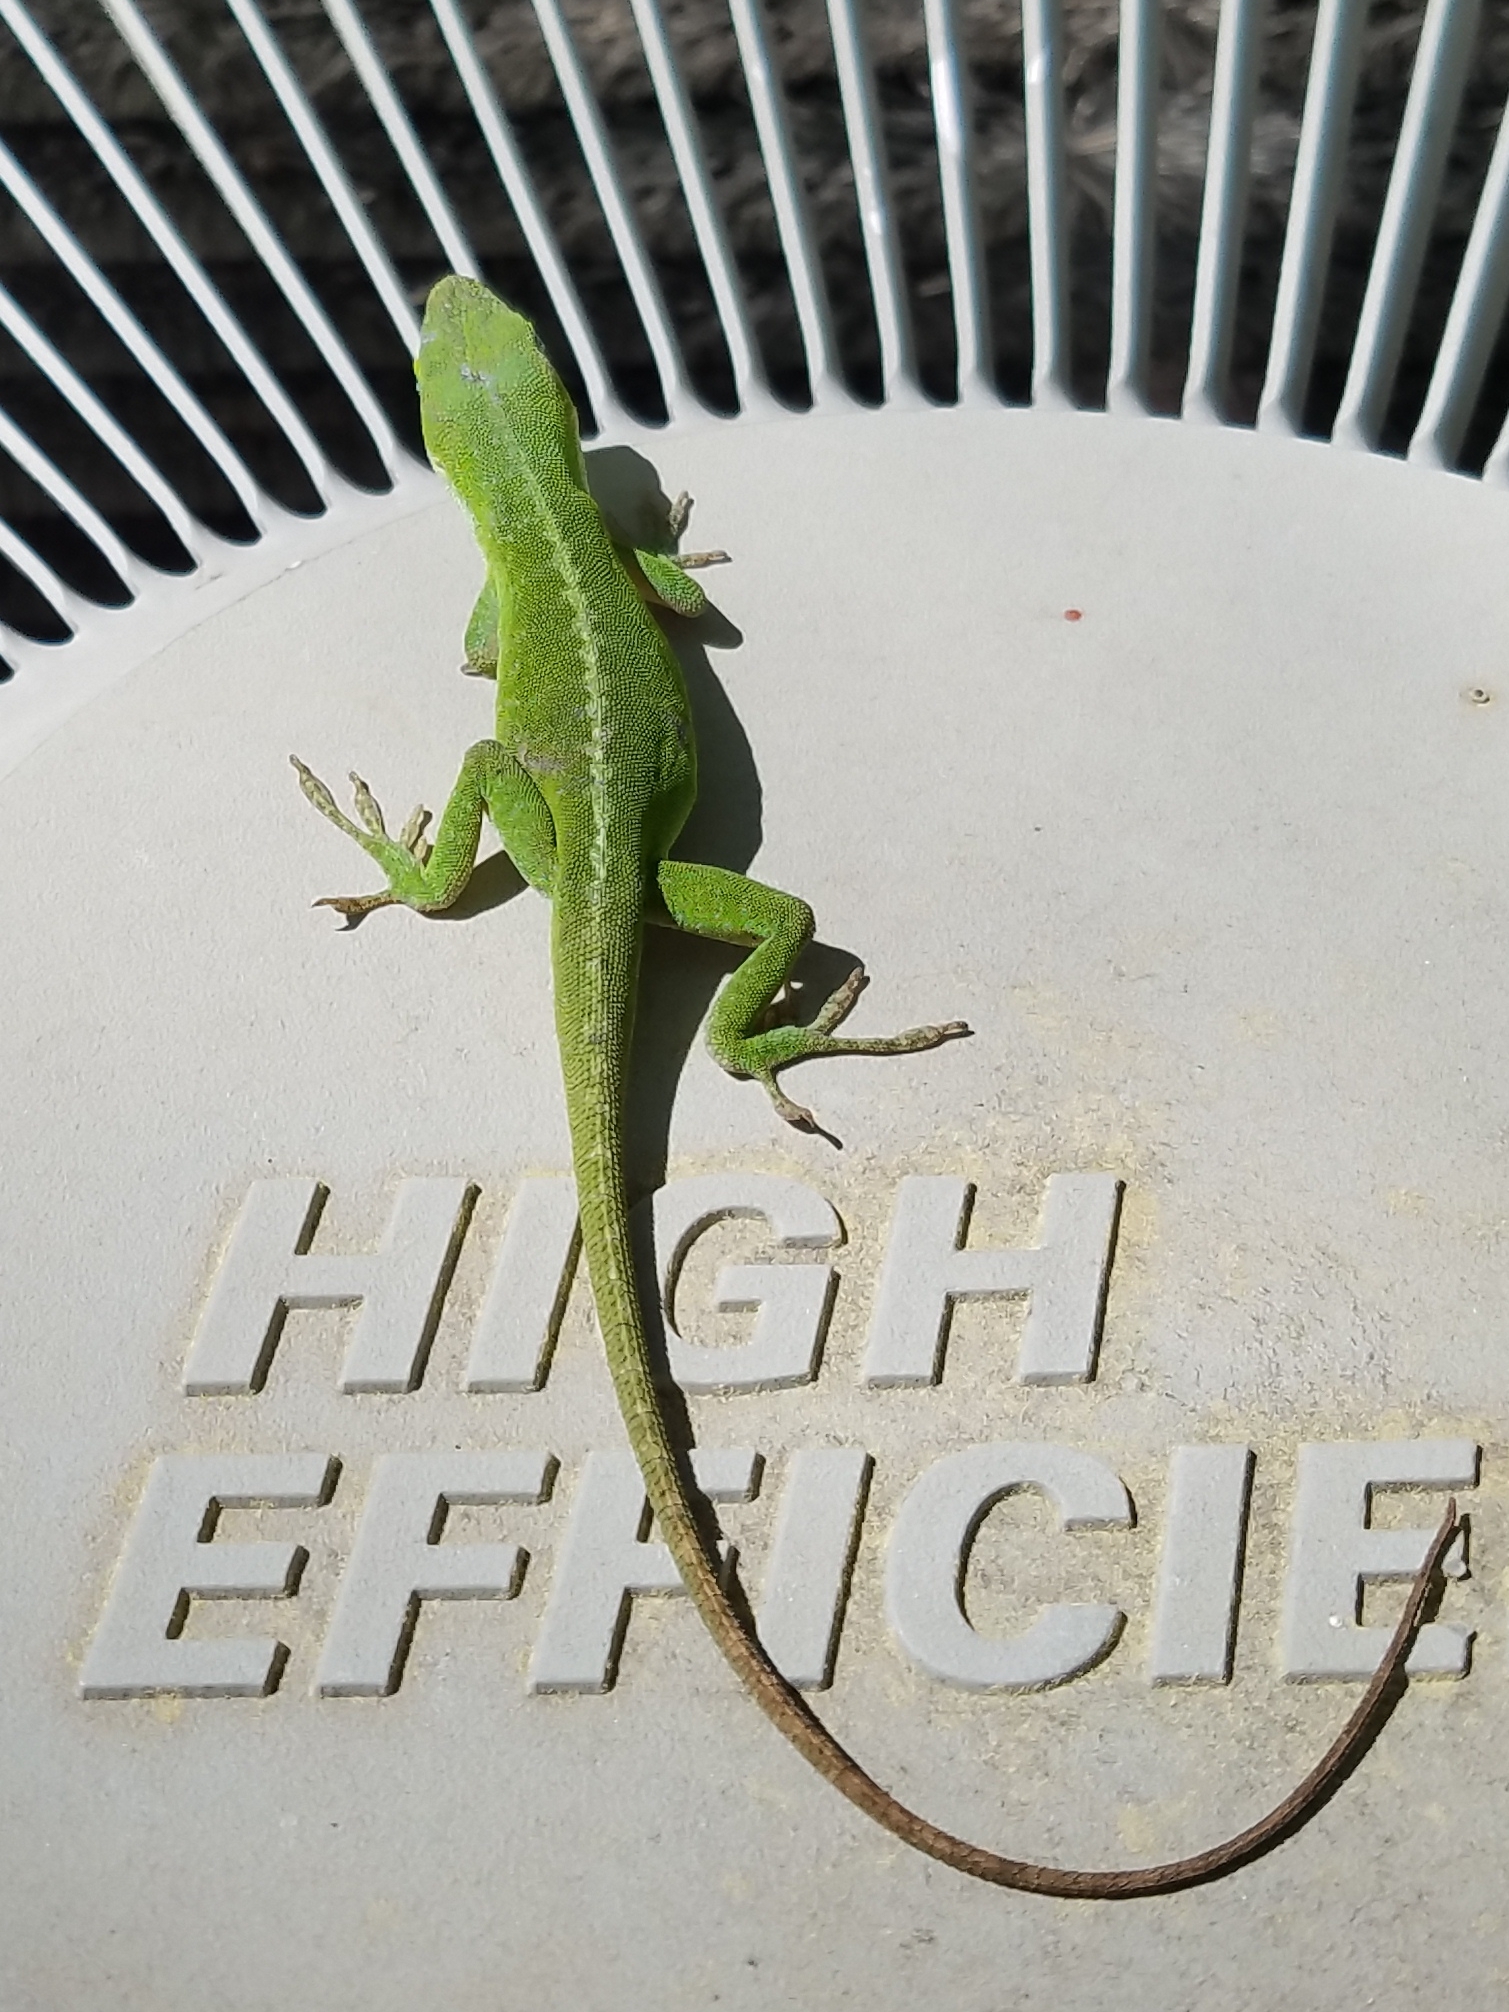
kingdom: Animalia
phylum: Chordata
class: Squamata
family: Dactyloidae
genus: Anolis
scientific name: Anolis carolinensis
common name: Green anole
